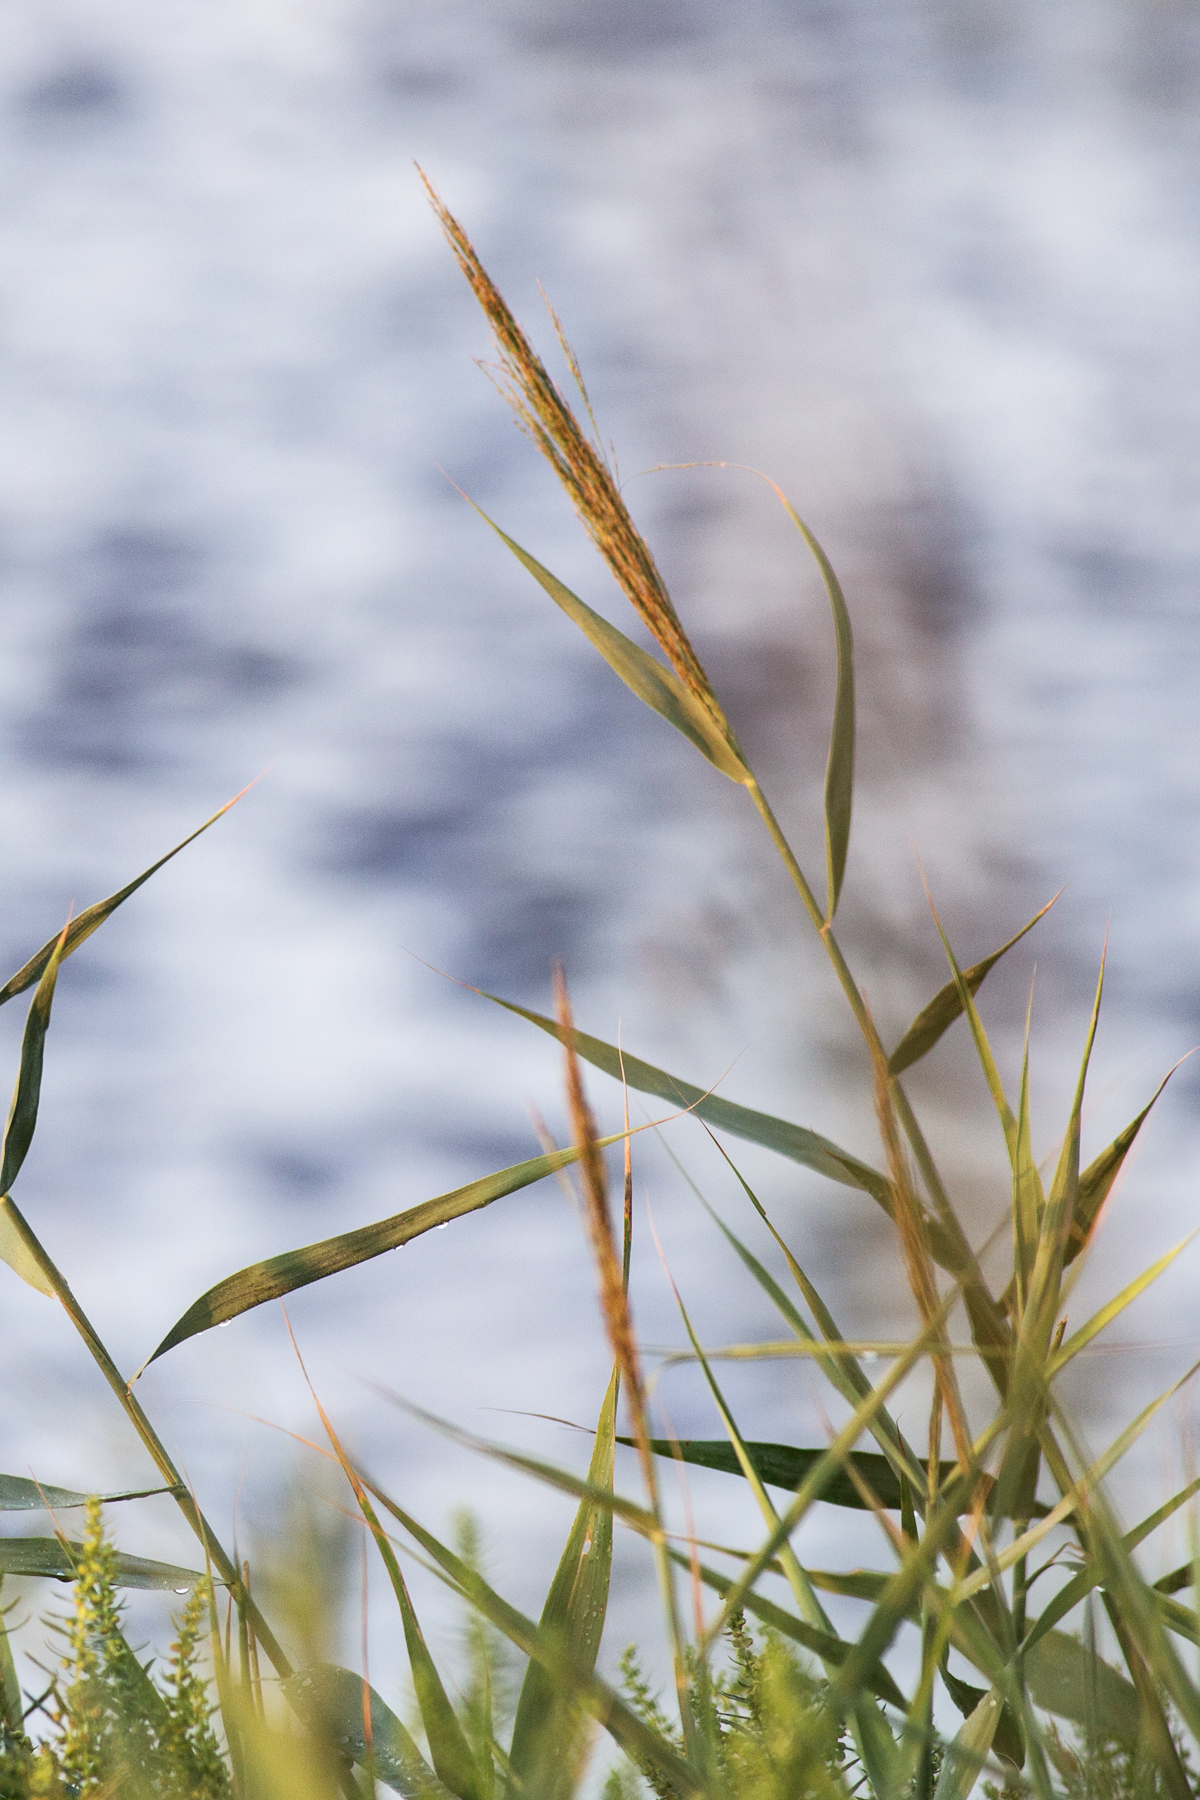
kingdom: Plantae
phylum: Tracheophyta
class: Liliopsida
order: Poales
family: Poaceae
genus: Phragmites
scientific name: Phragmites australis
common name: Common reed
